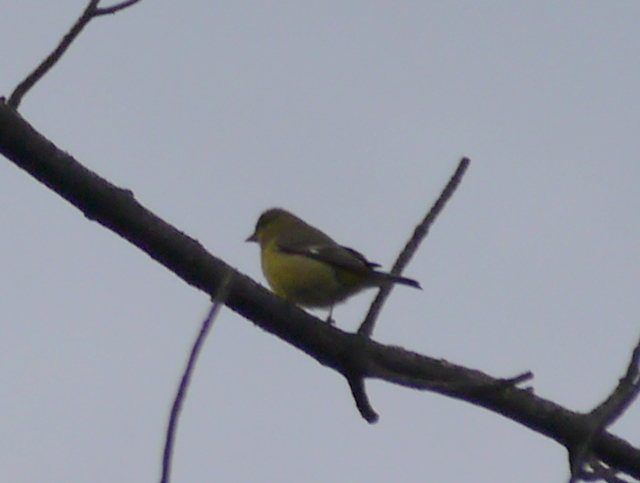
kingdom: Animalia
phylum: Chordata
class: Aves
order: Passeriformes
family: Fringillidae
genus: Spinus
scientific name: Spinus psaltria
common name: Lesser goldfinch
